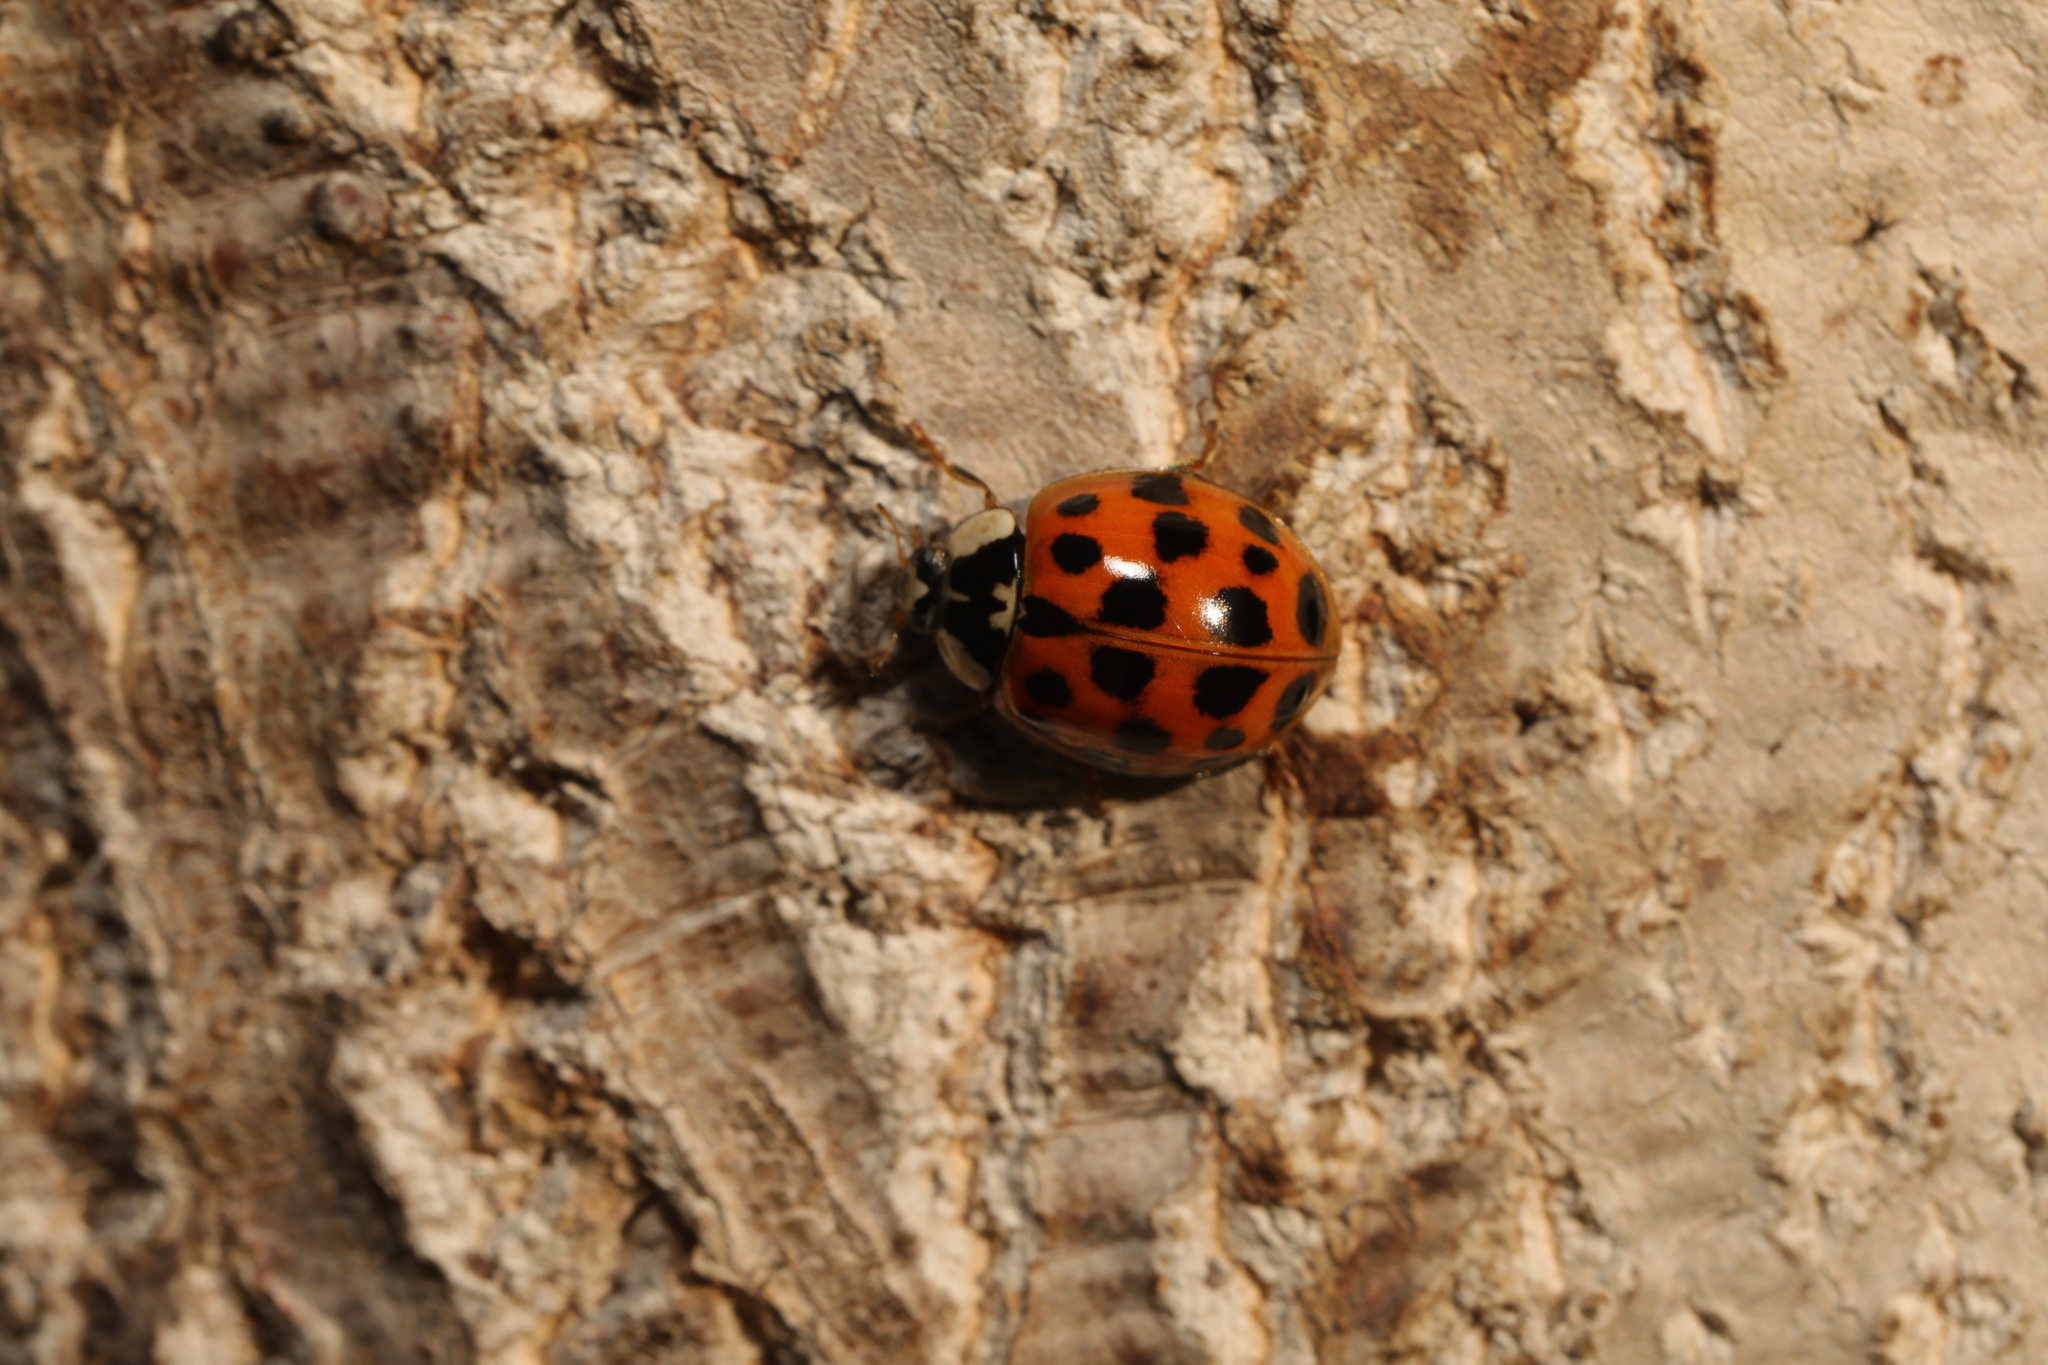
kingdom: Animalia
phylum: Arthropoda
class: Insecta
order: Coleoptera
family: Coccinellidae
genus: Harmonia
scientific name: Harmonia axyridis
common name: Harlequin ladybird
